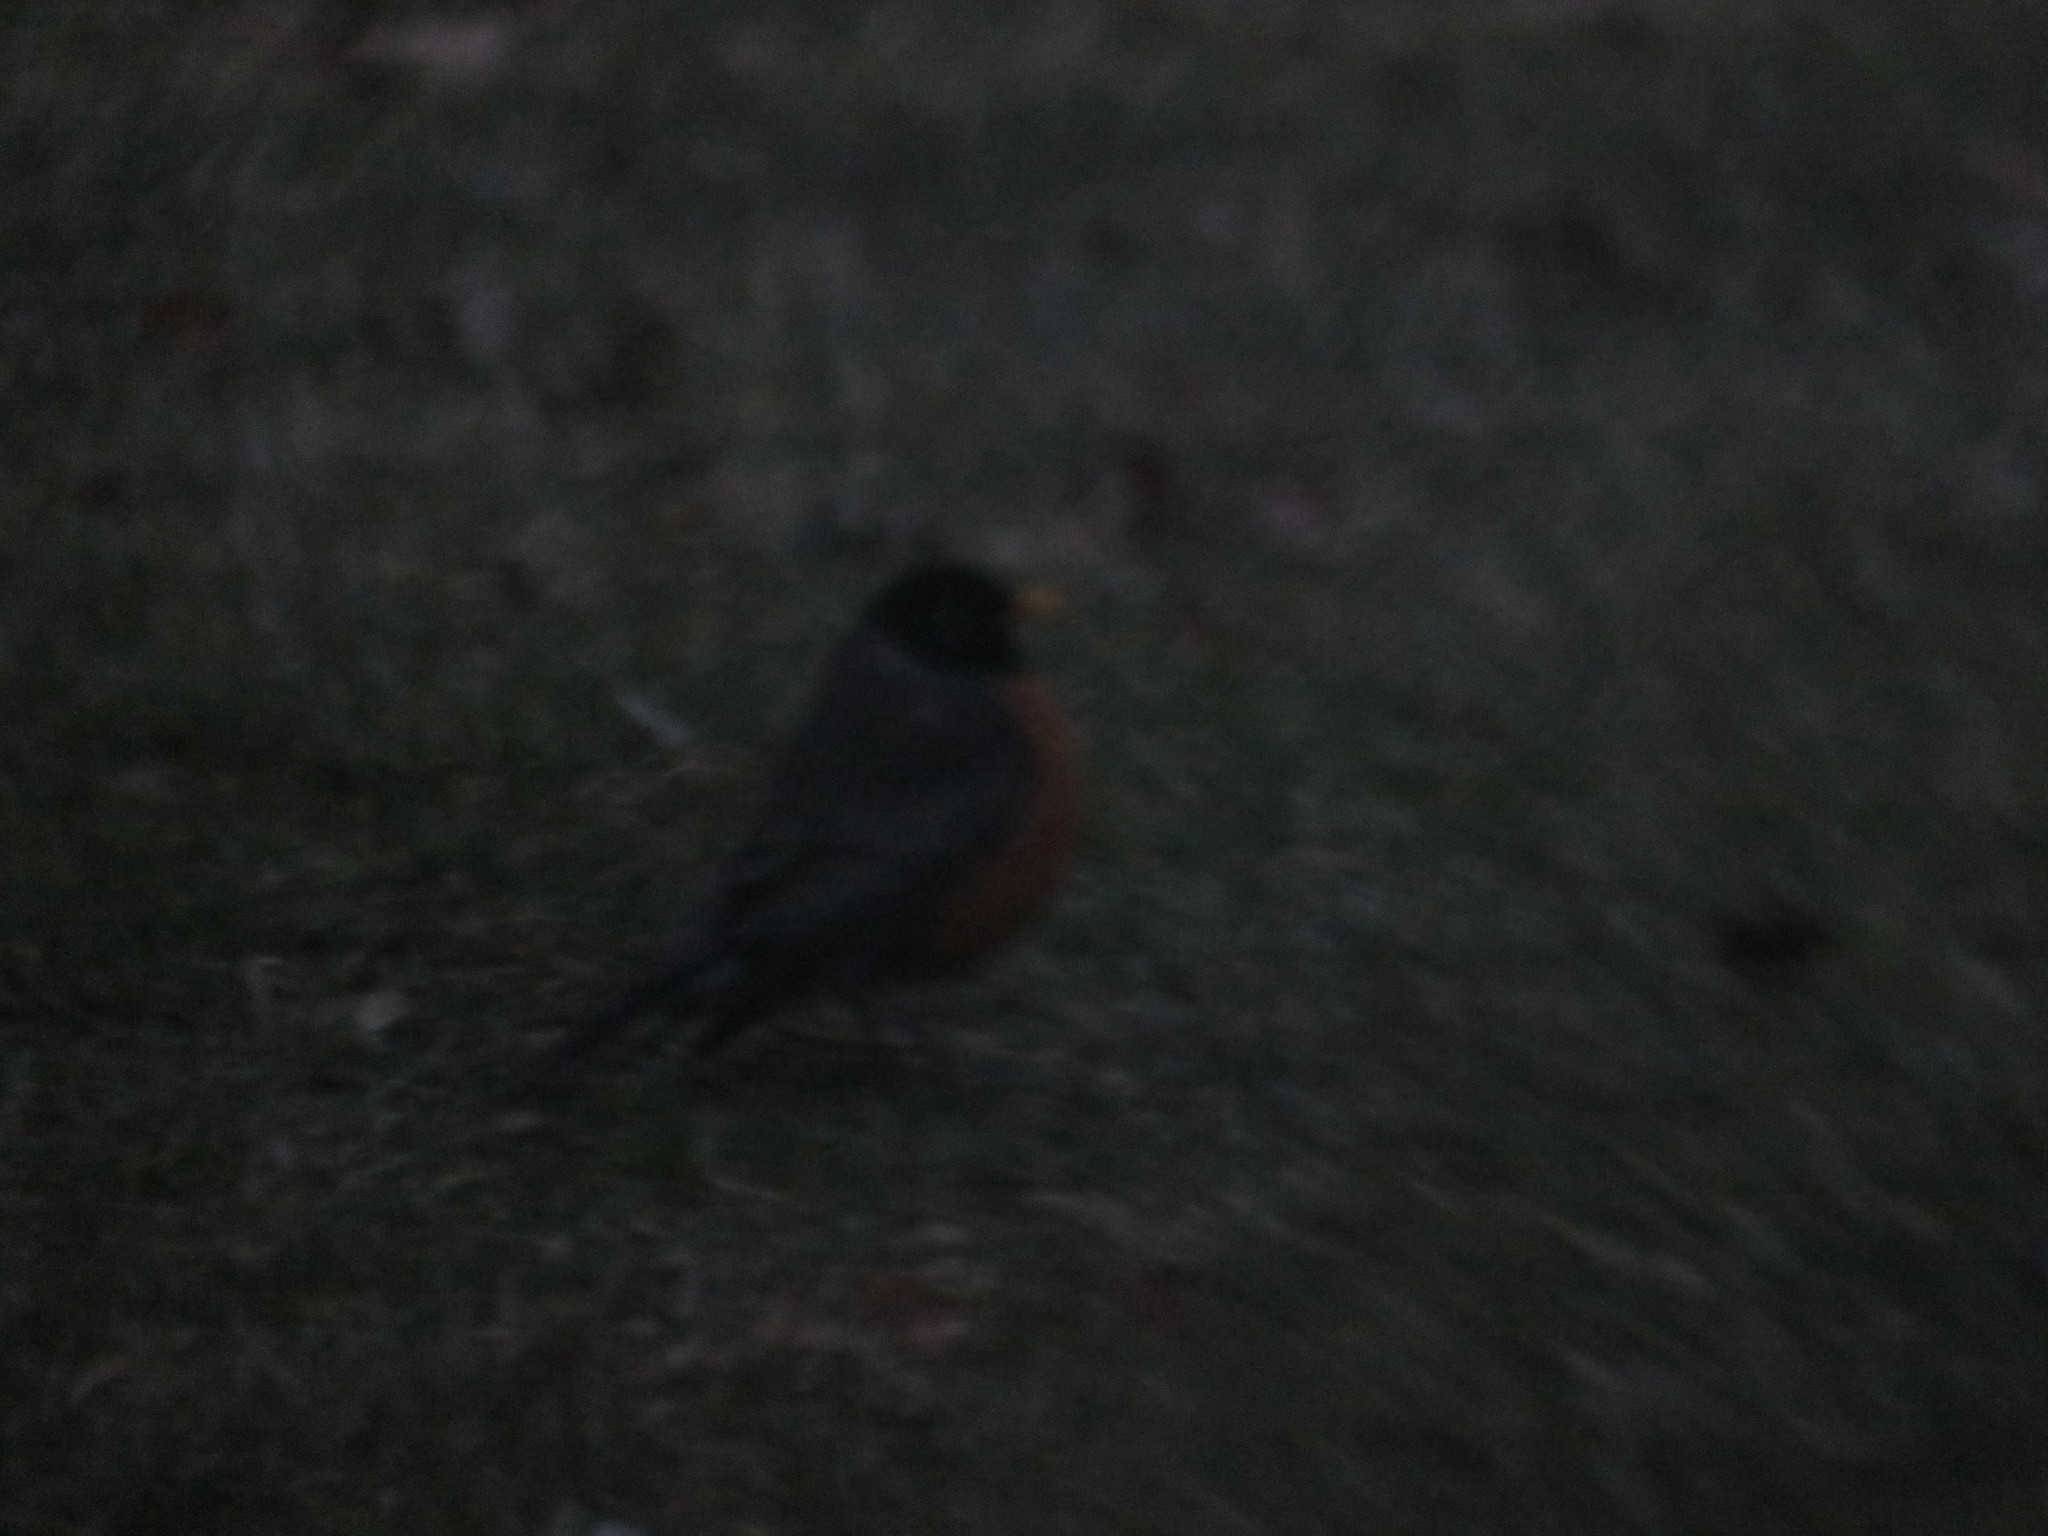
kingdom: Animalia
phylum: Chordata
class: Aves
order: Passeriformes
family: Turdidae
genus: Turdus
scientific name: Turdus migratorius
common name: American robin
